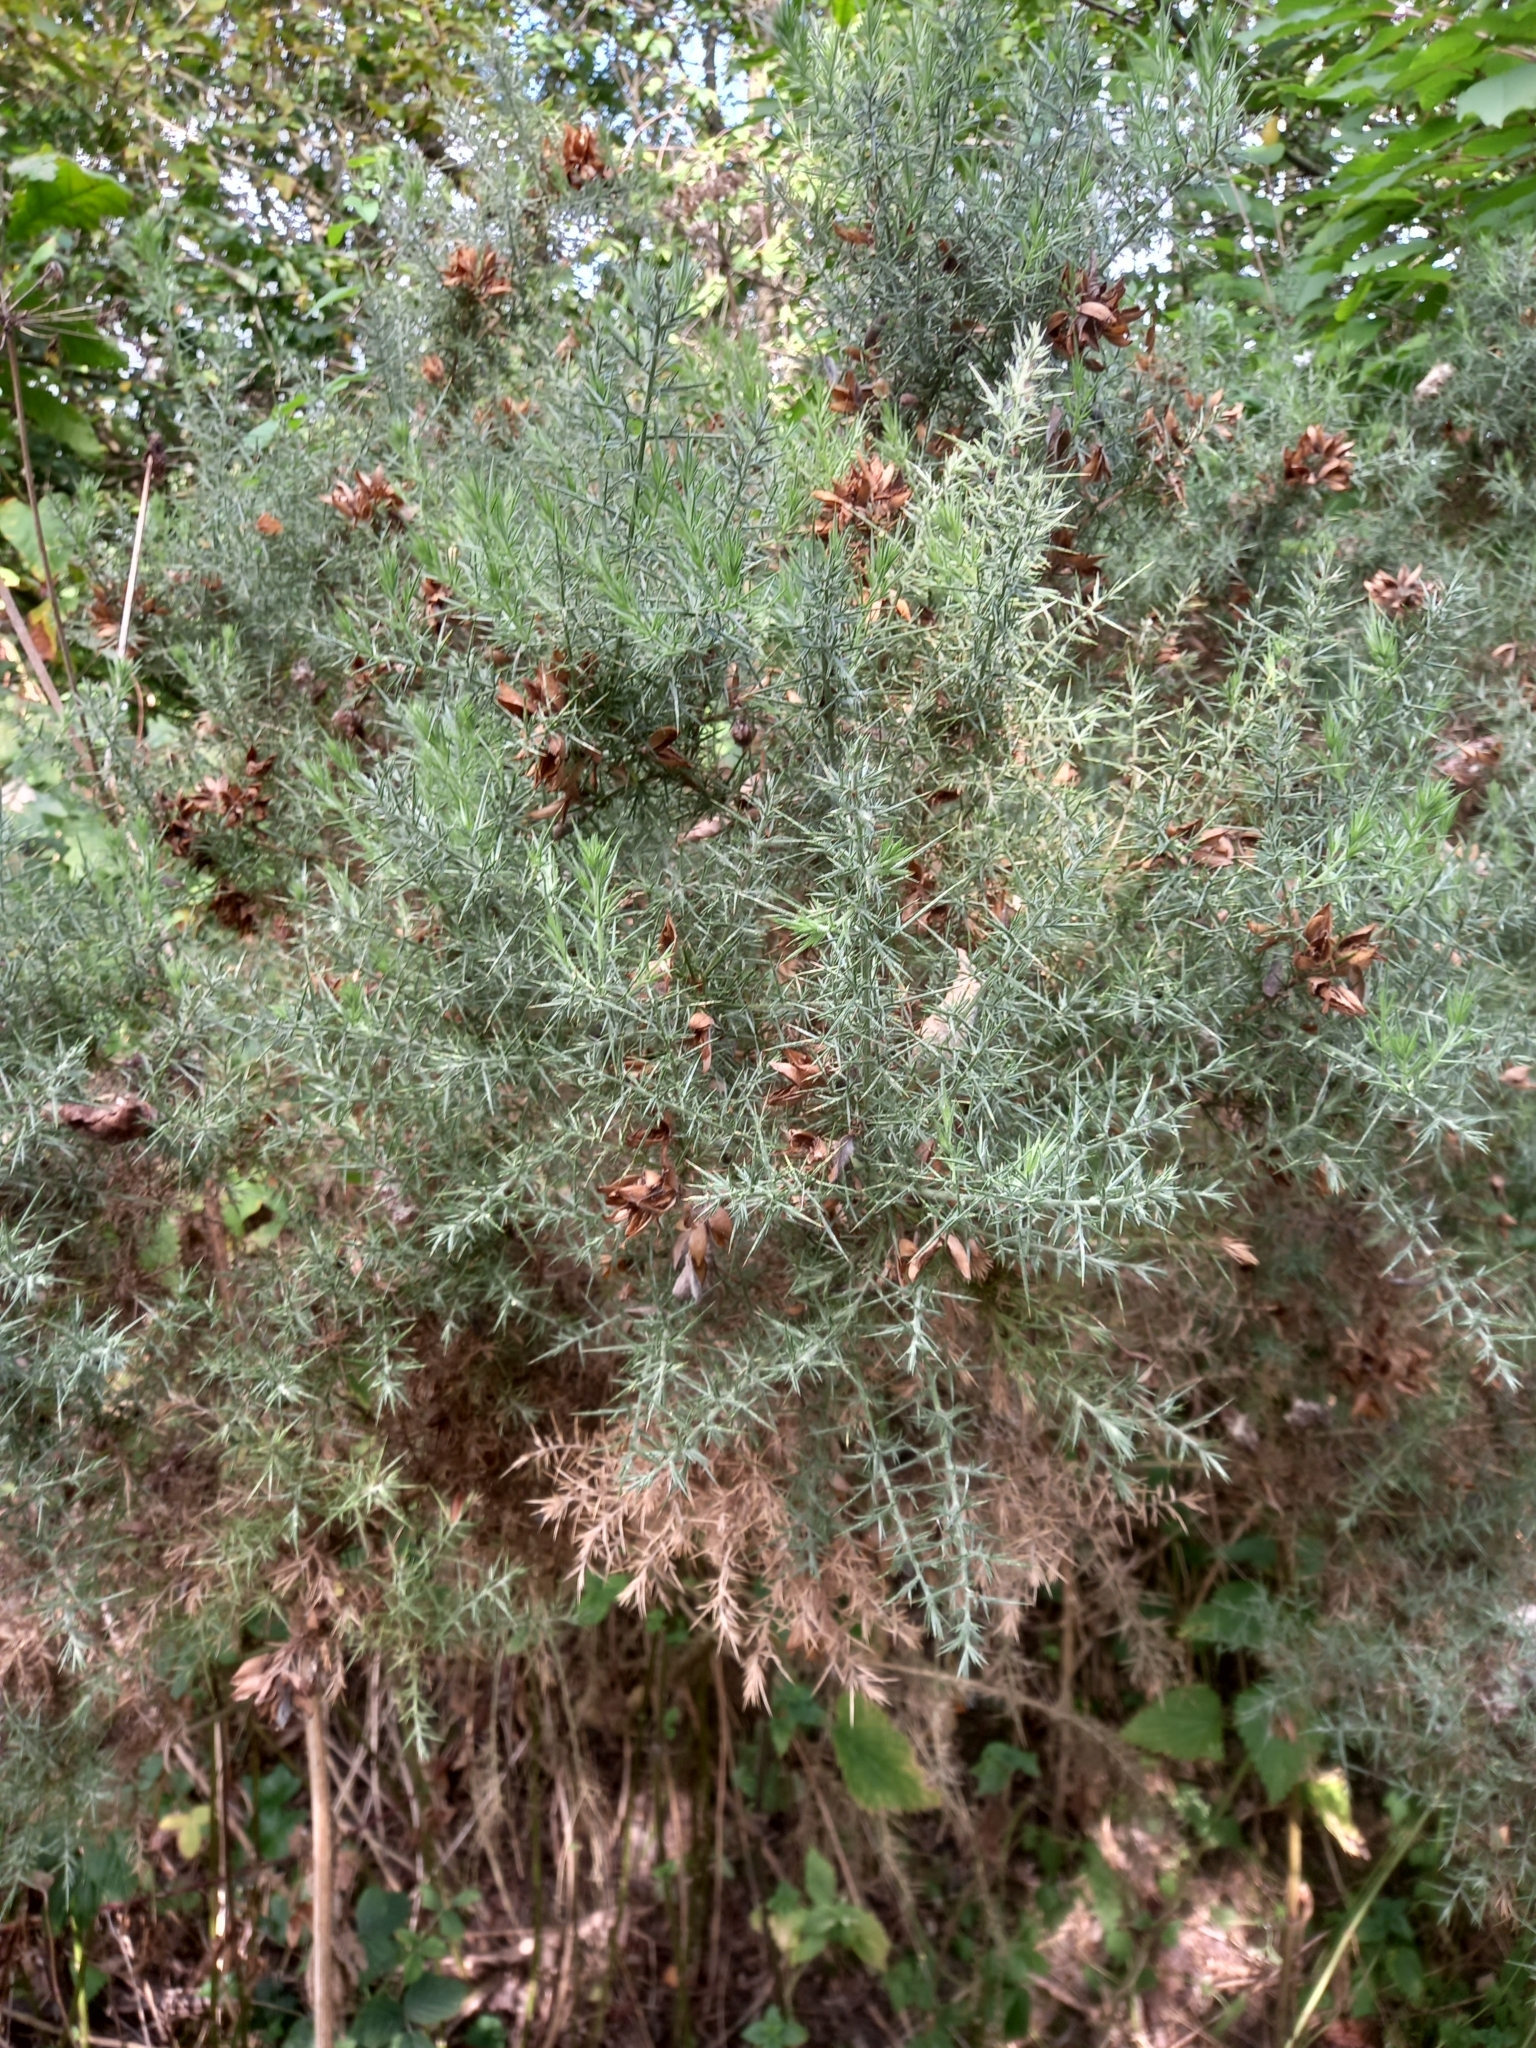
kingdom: Plantae
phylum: Tracheophyta
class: Magnoliopsida
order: Fabales
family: Fabaceae
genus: Ulex
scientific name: Ulex europaeus
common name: Common gorse
